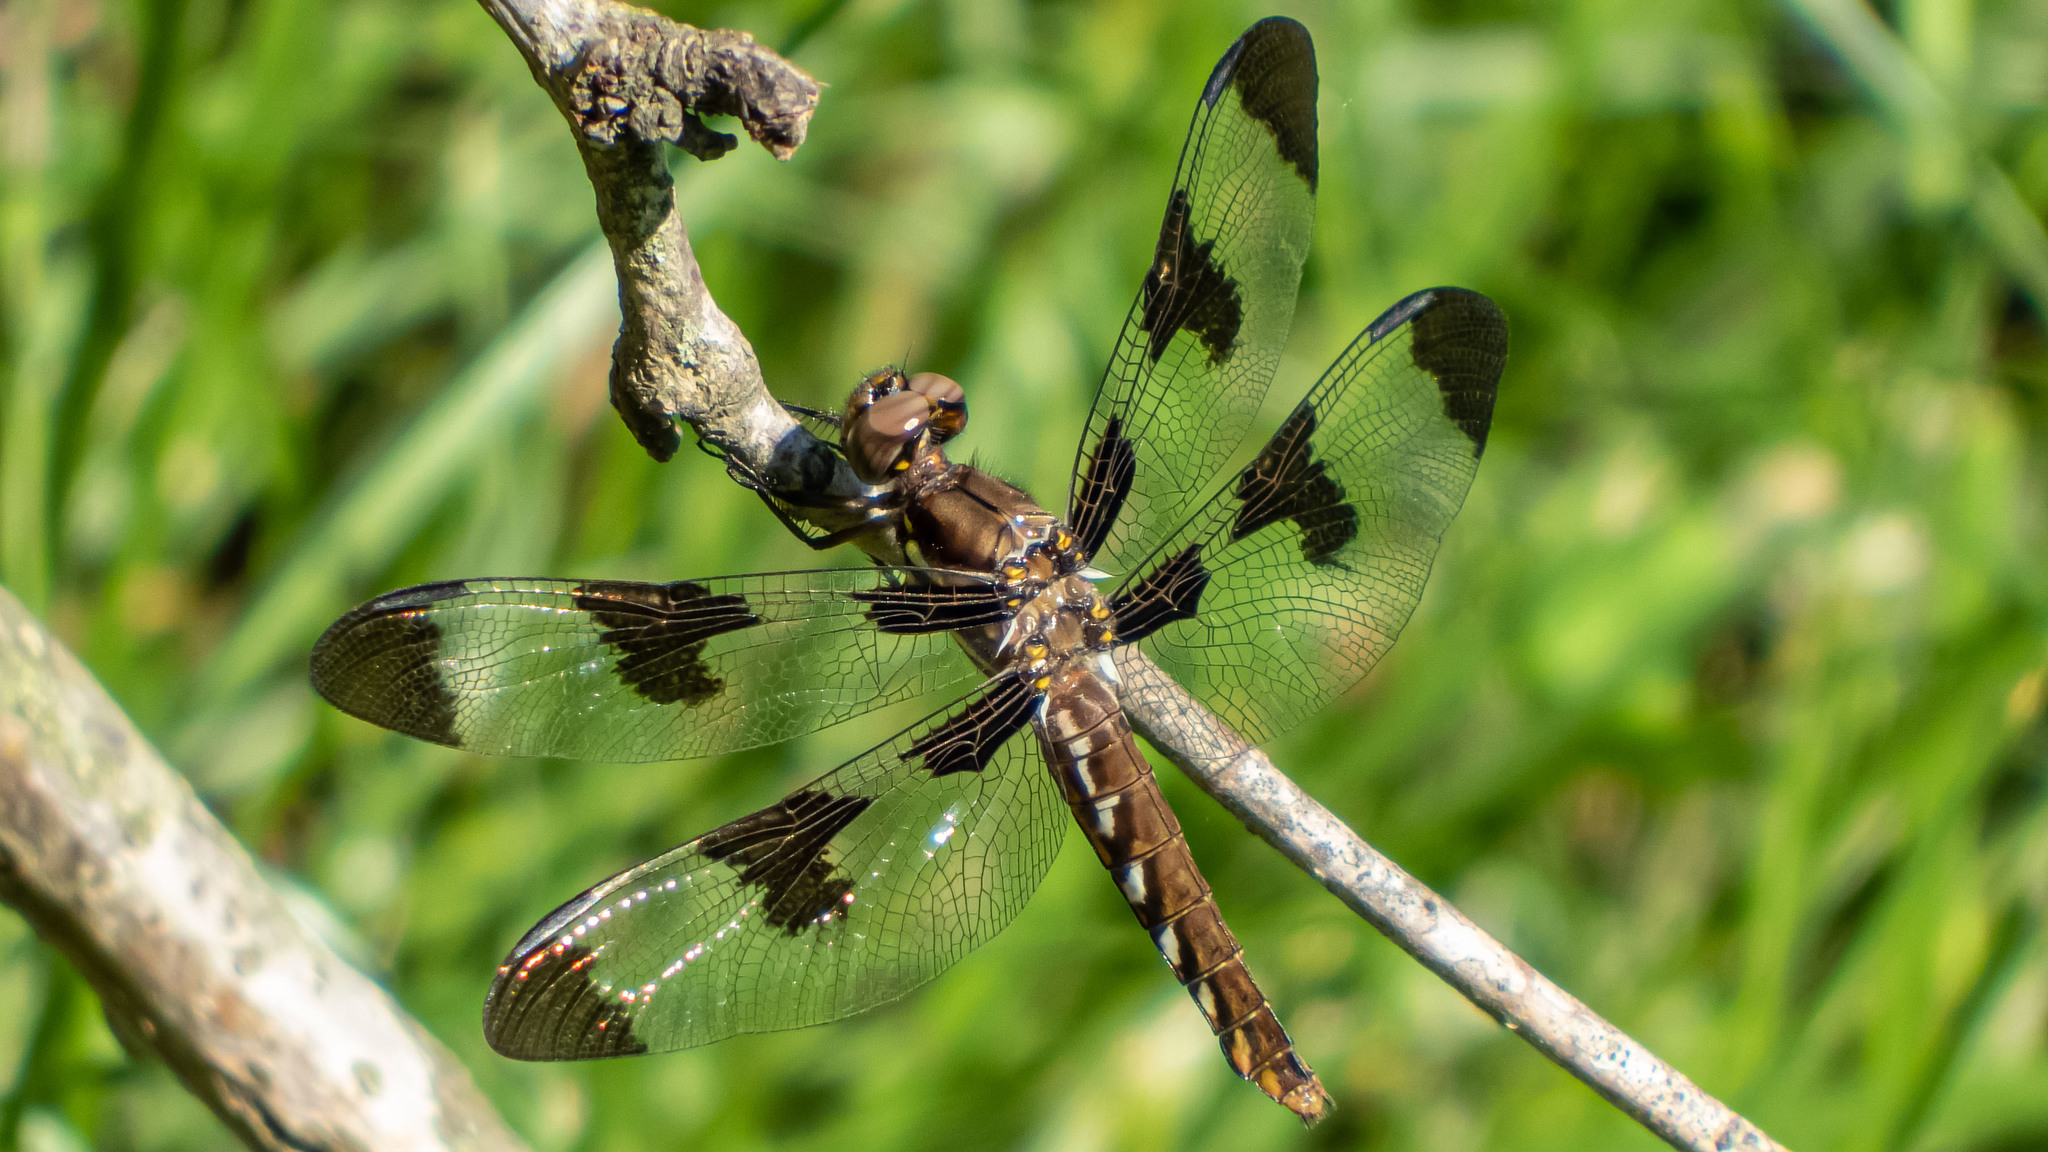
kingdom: Animalia
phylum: Arthropoda
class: Insecta
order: Odonata
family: Libellulidae
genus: Plathemis
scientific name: Plathemis lydia
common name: Common whitetail
